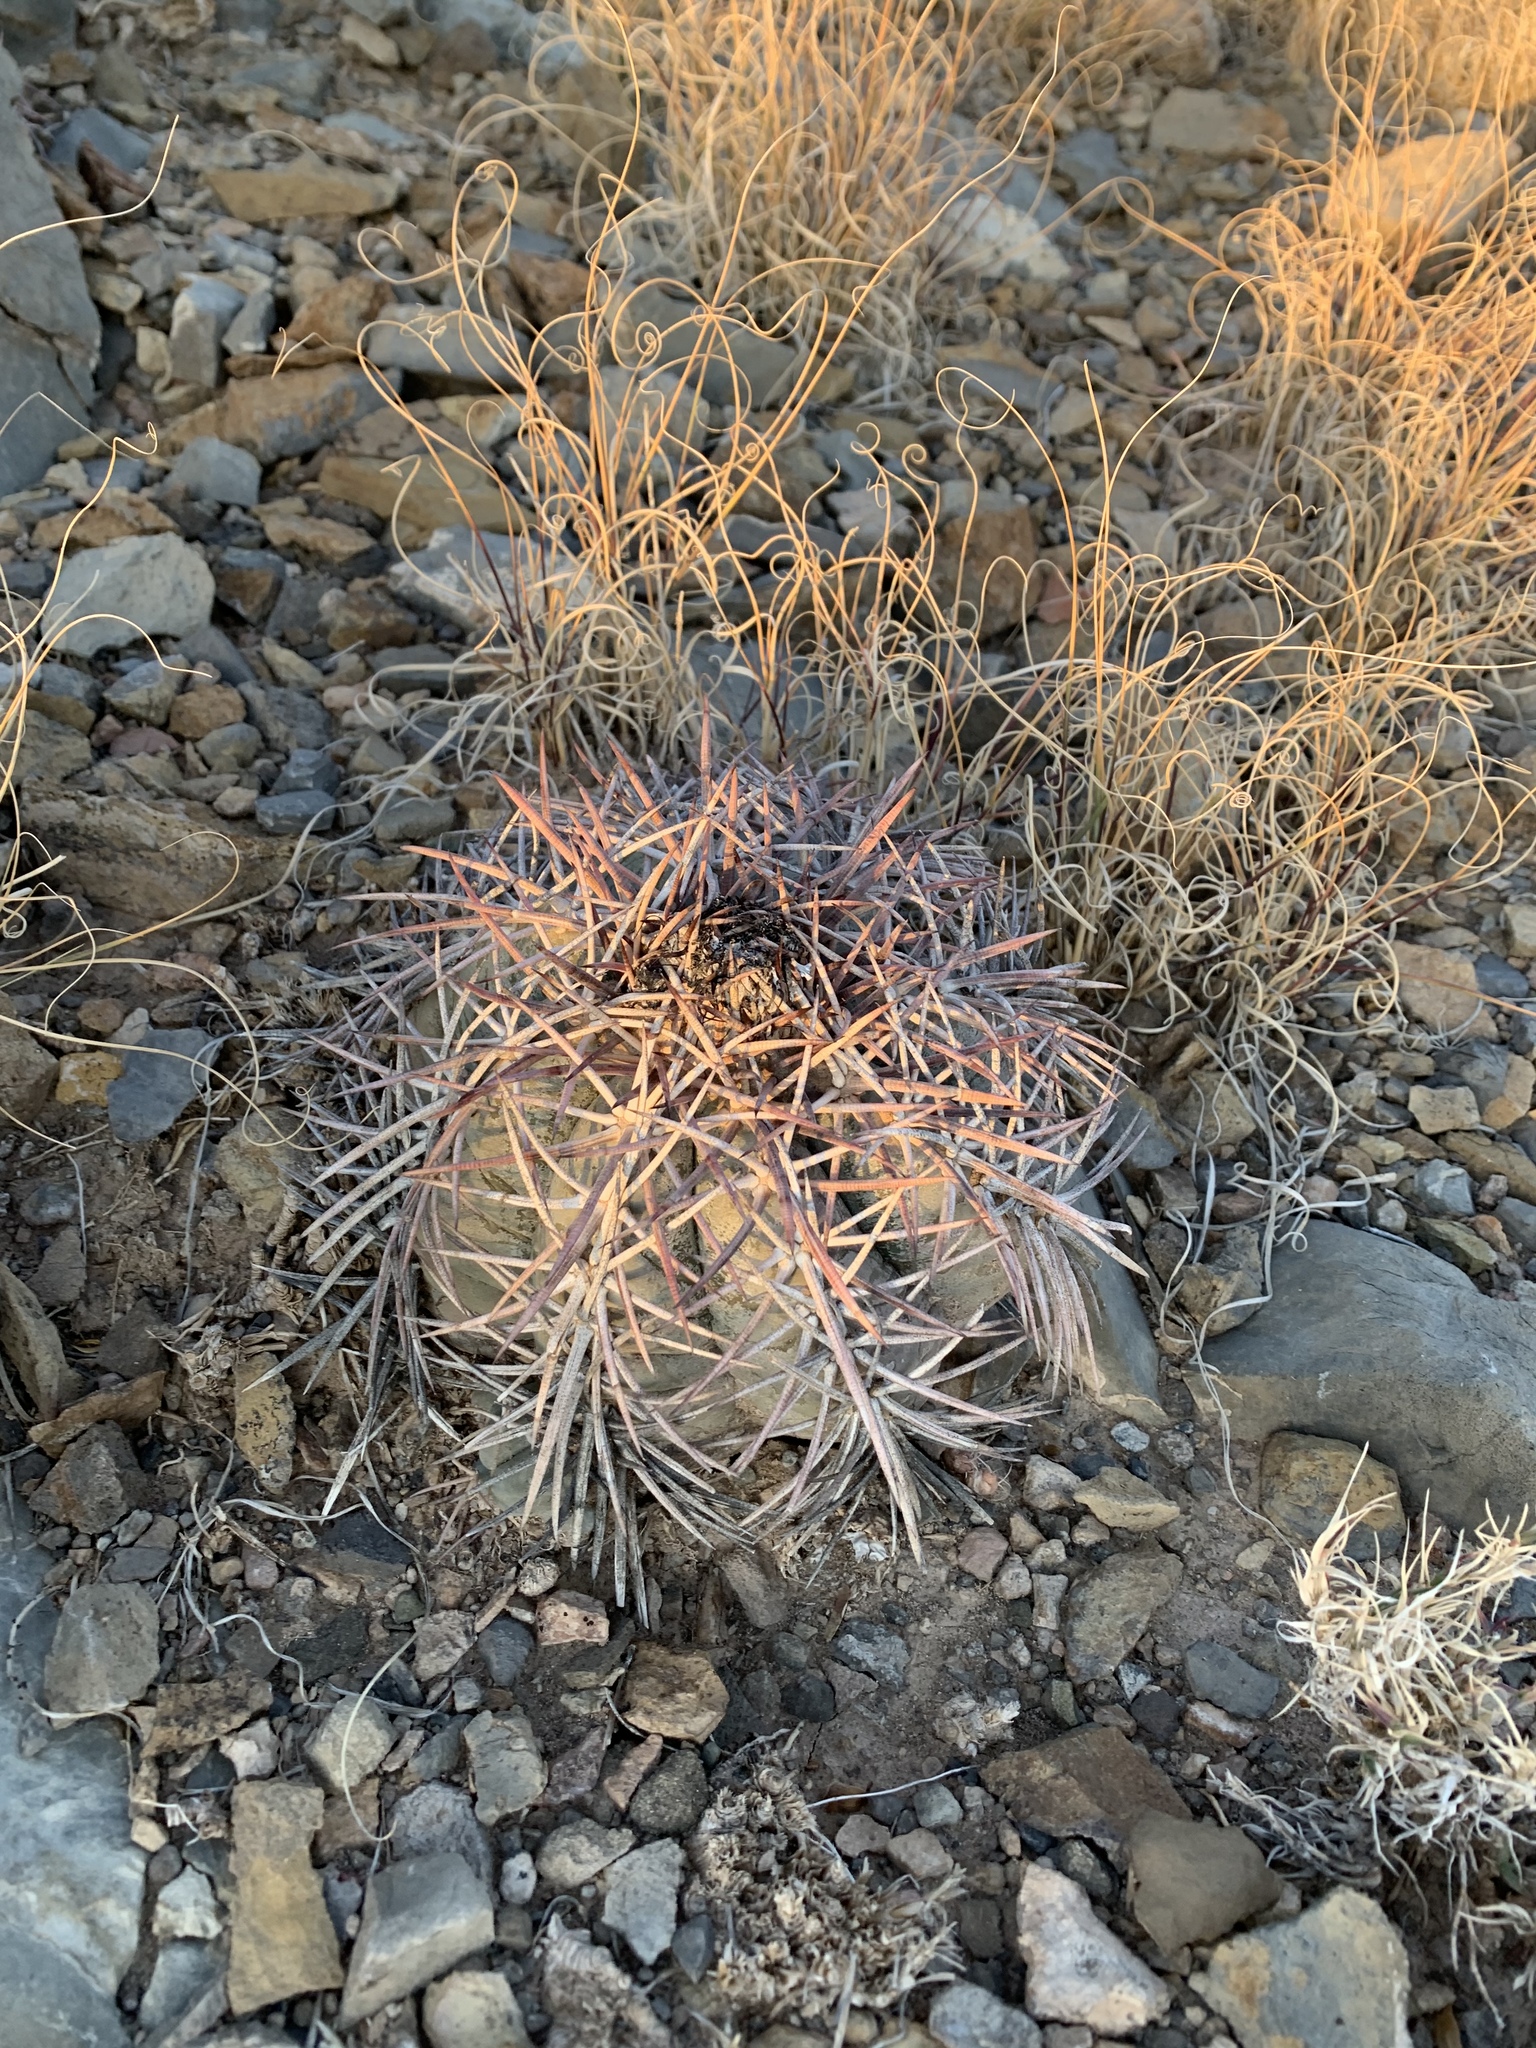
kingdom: Plantae
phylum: Tracheophyta
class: Magnoliopsida
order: Caryophyllales
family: Cactaceae
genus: Echinocactus
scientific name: Echinocactus horizonthalonius
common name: Devilshead
